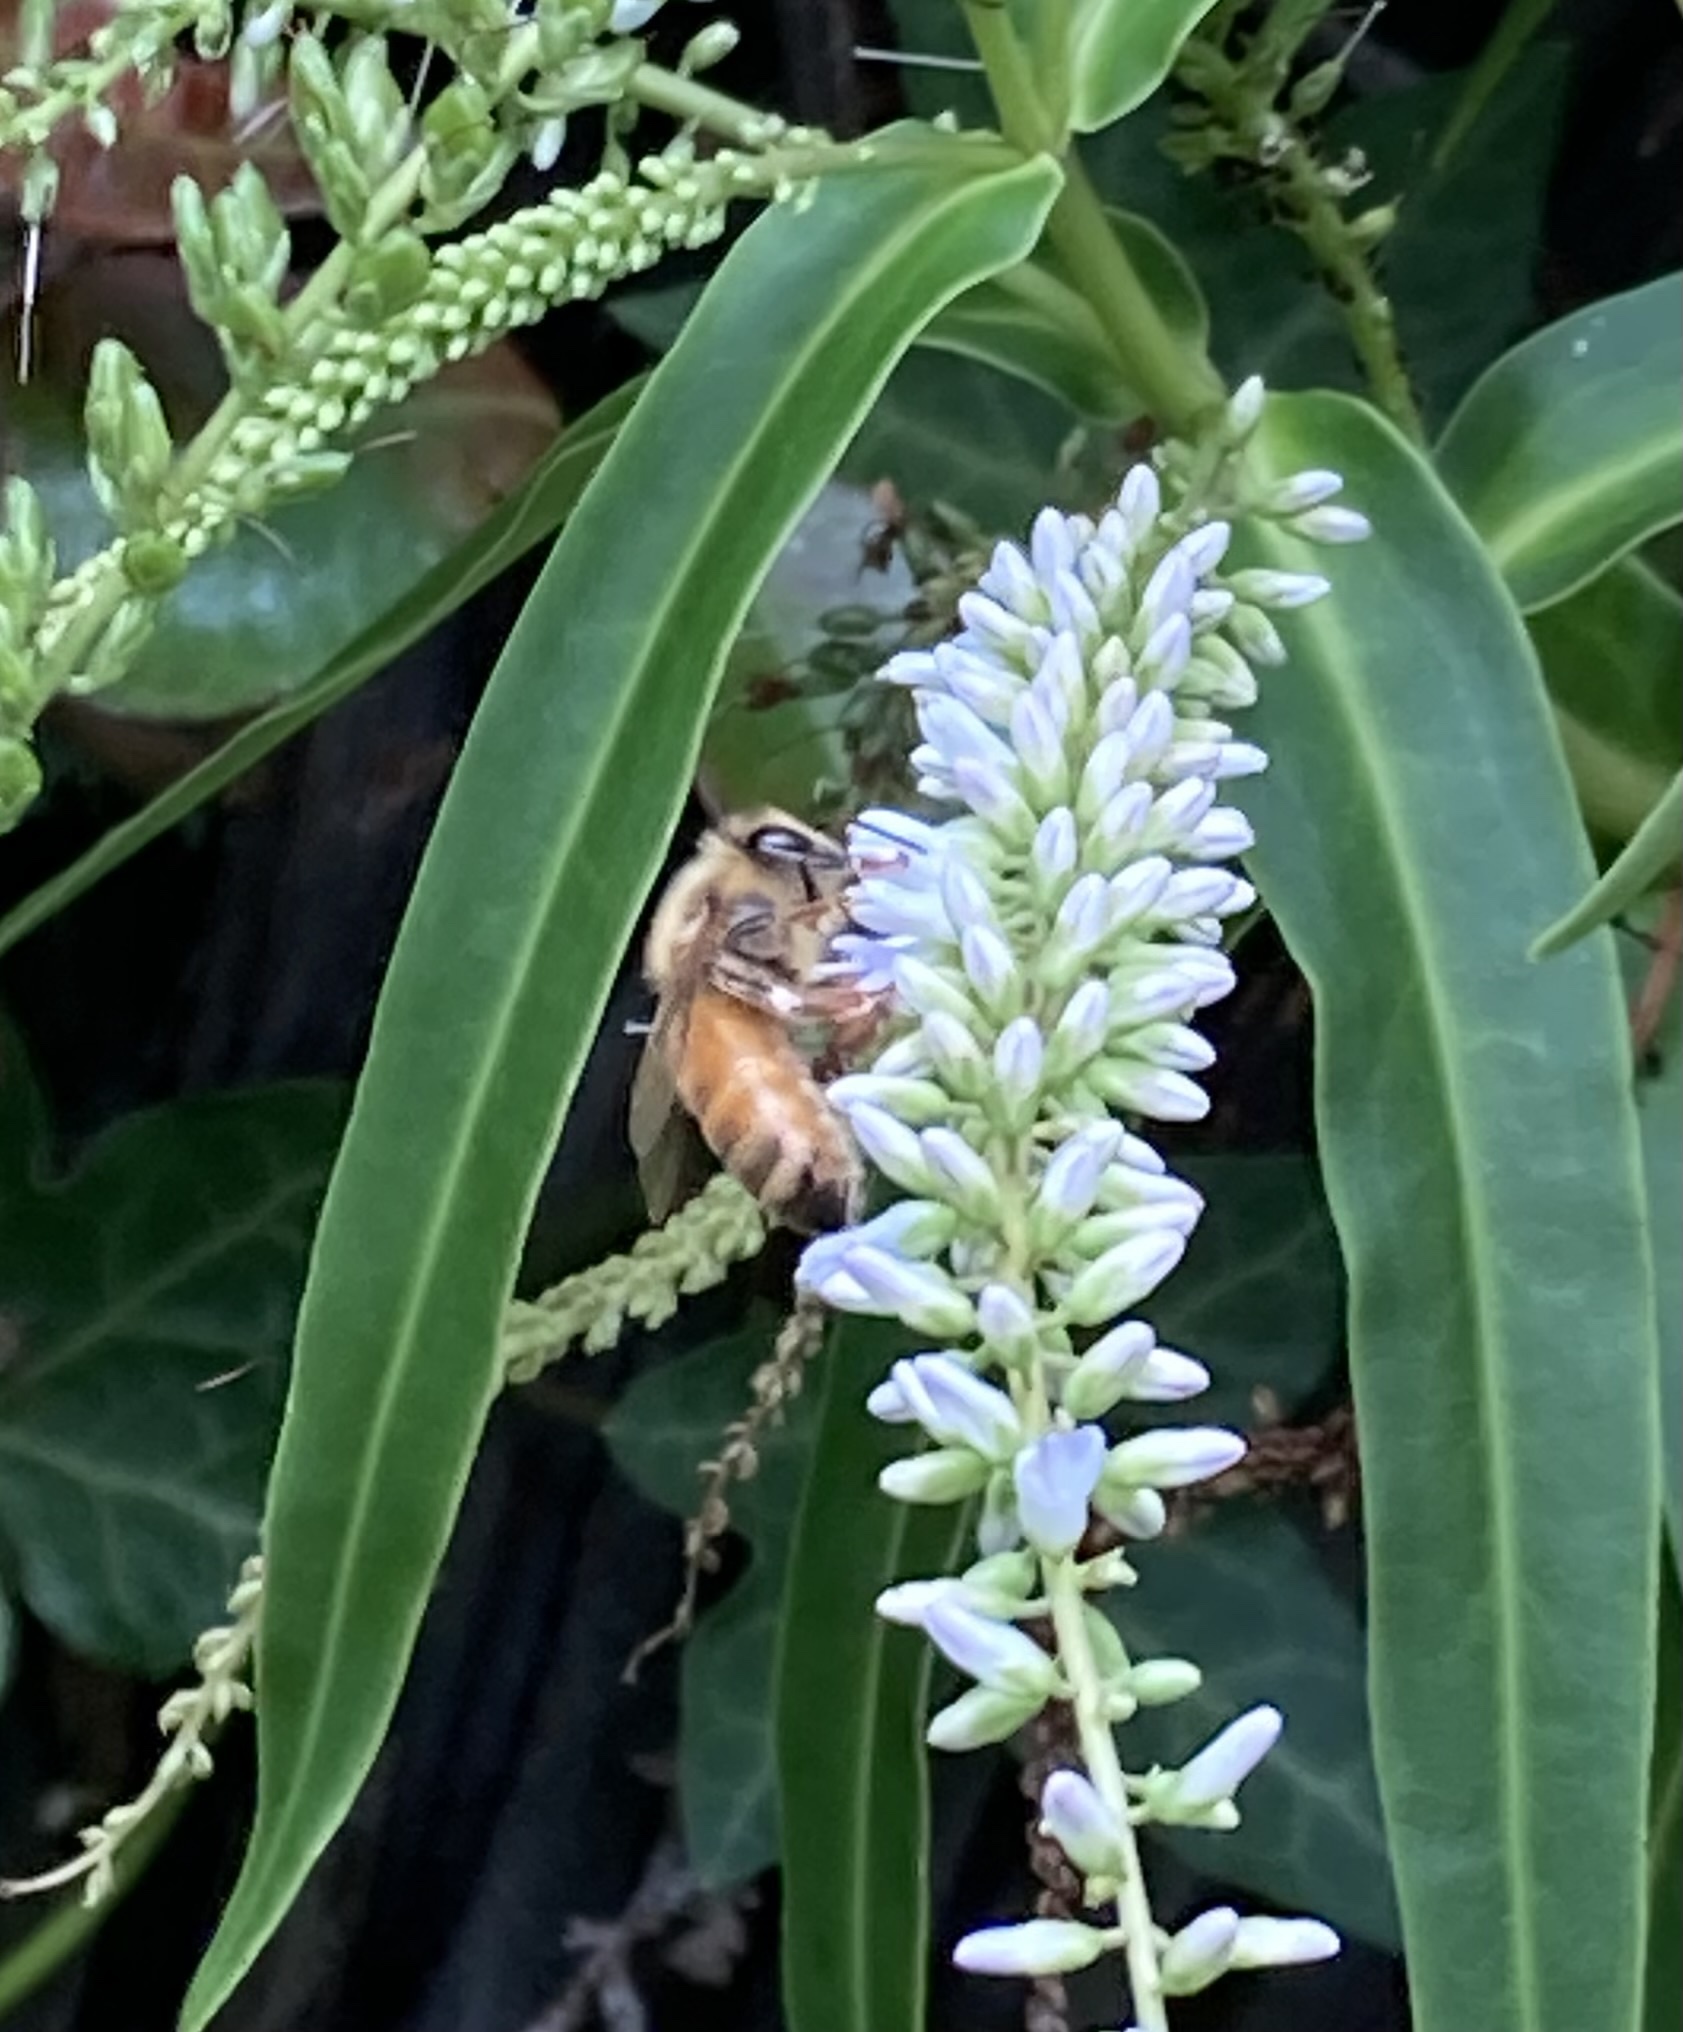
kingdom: Animalia
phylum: Arthropoda
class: Insecta
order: Hymenoptera
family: Apidae
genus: Apis
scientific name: Apis mellifera
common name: Honey bee
